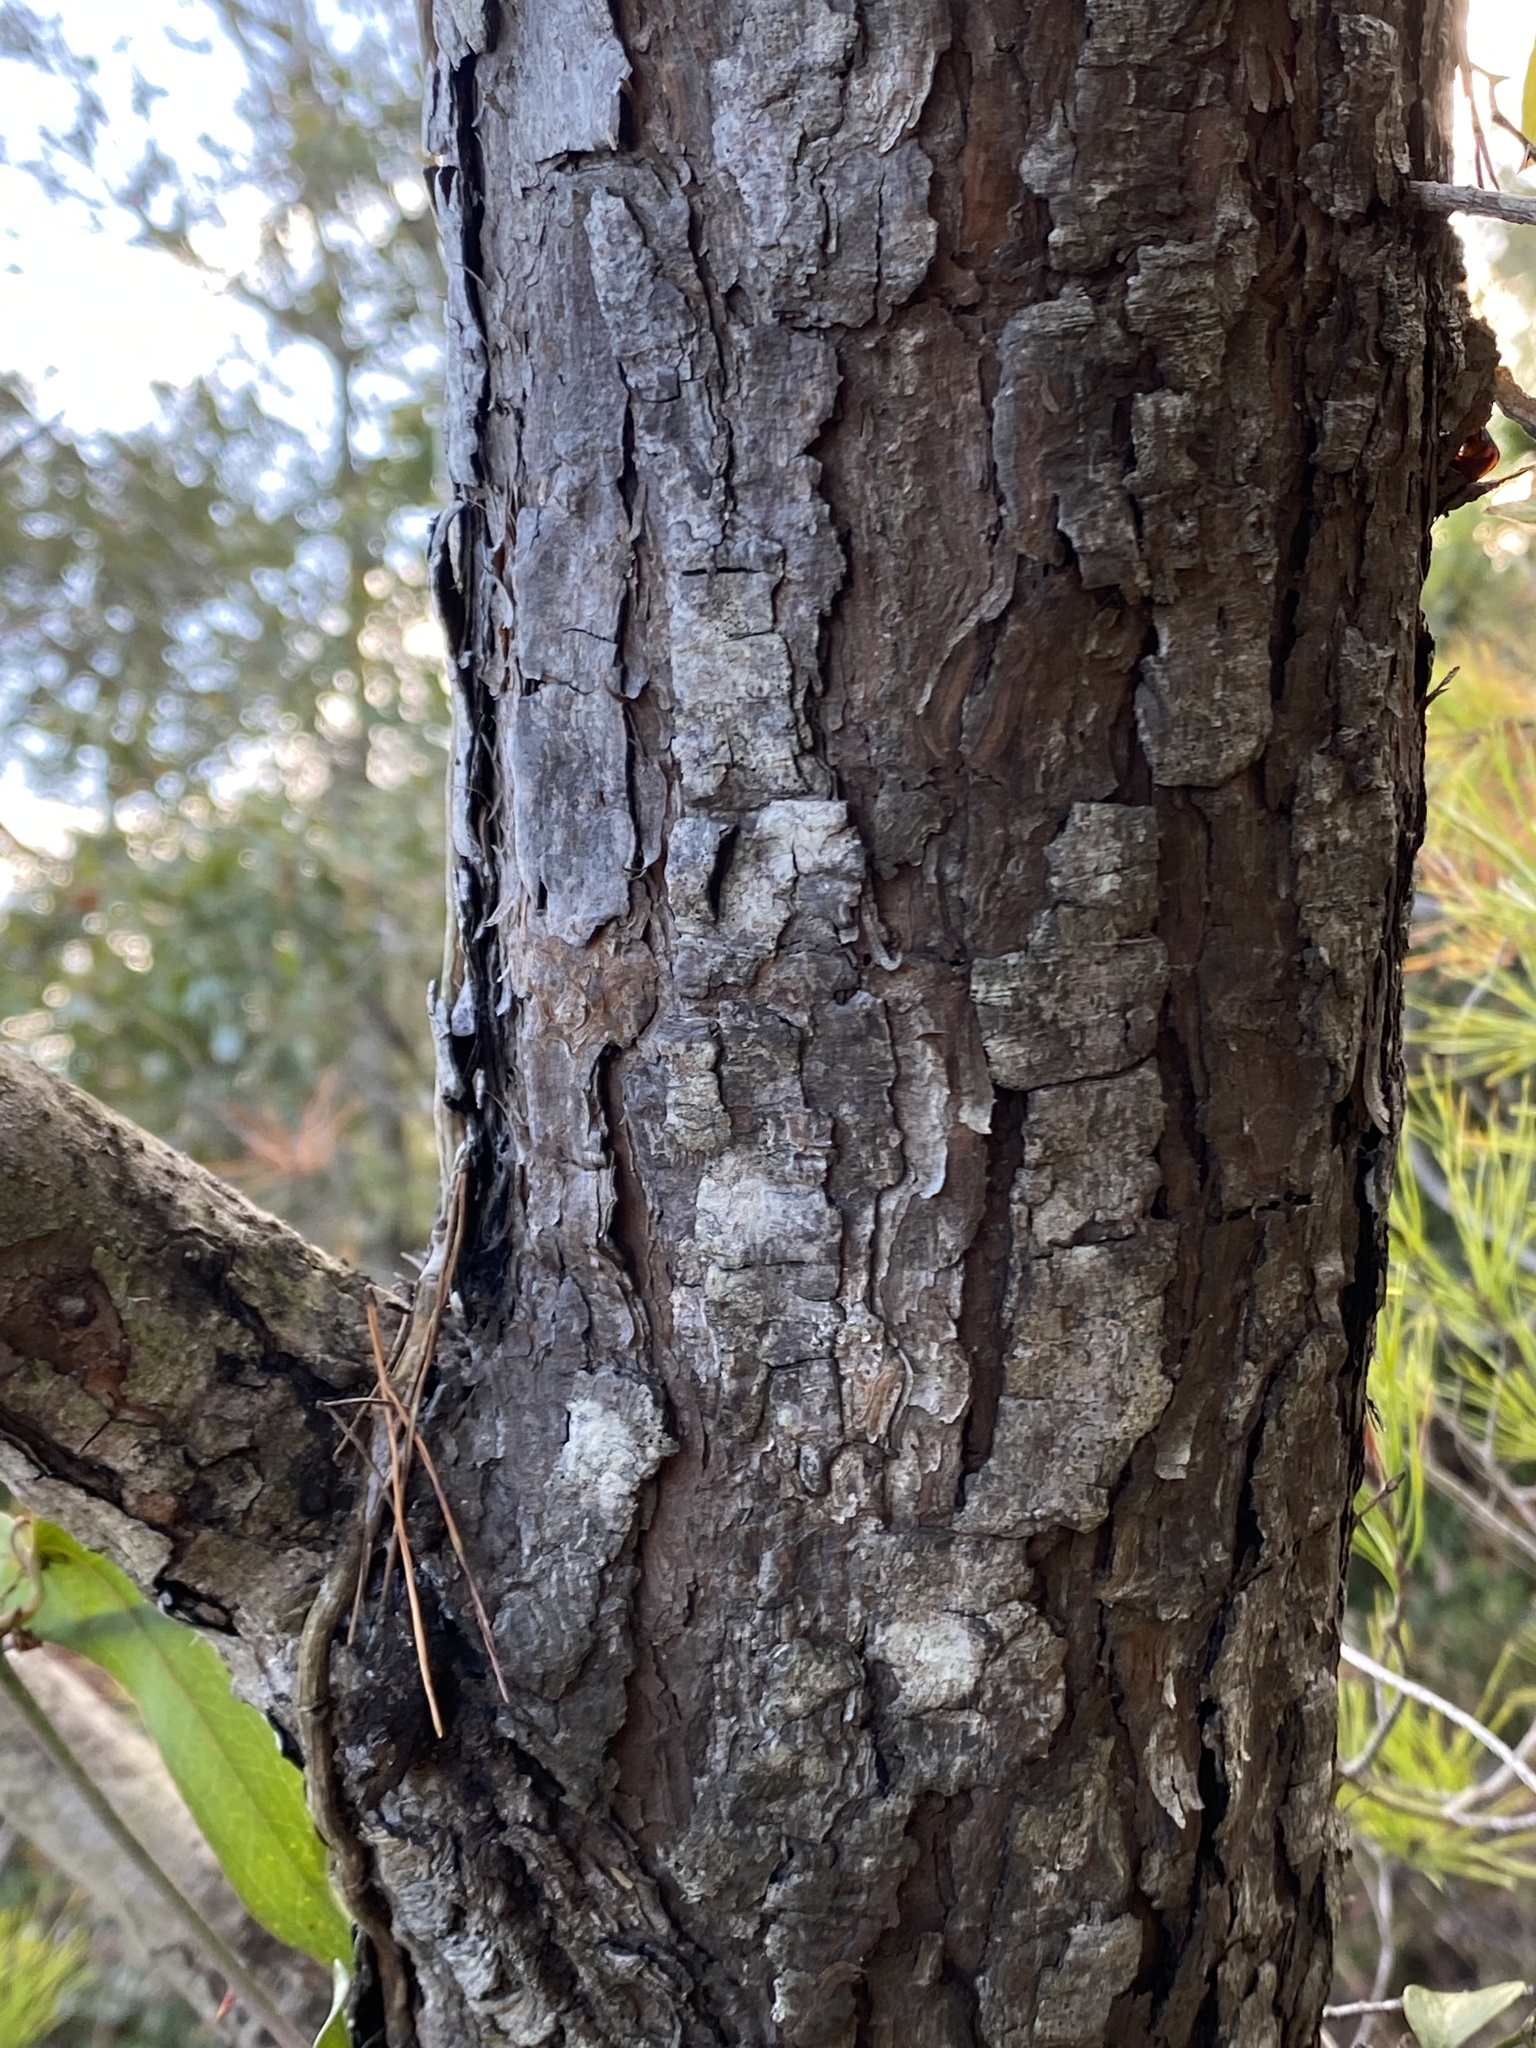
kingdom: Plantae
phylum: Tracheophyta
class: Pinopsida
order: Pinales
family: Pinaceae
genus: Pinus
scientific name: Pinus clausa
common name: Sand pine
